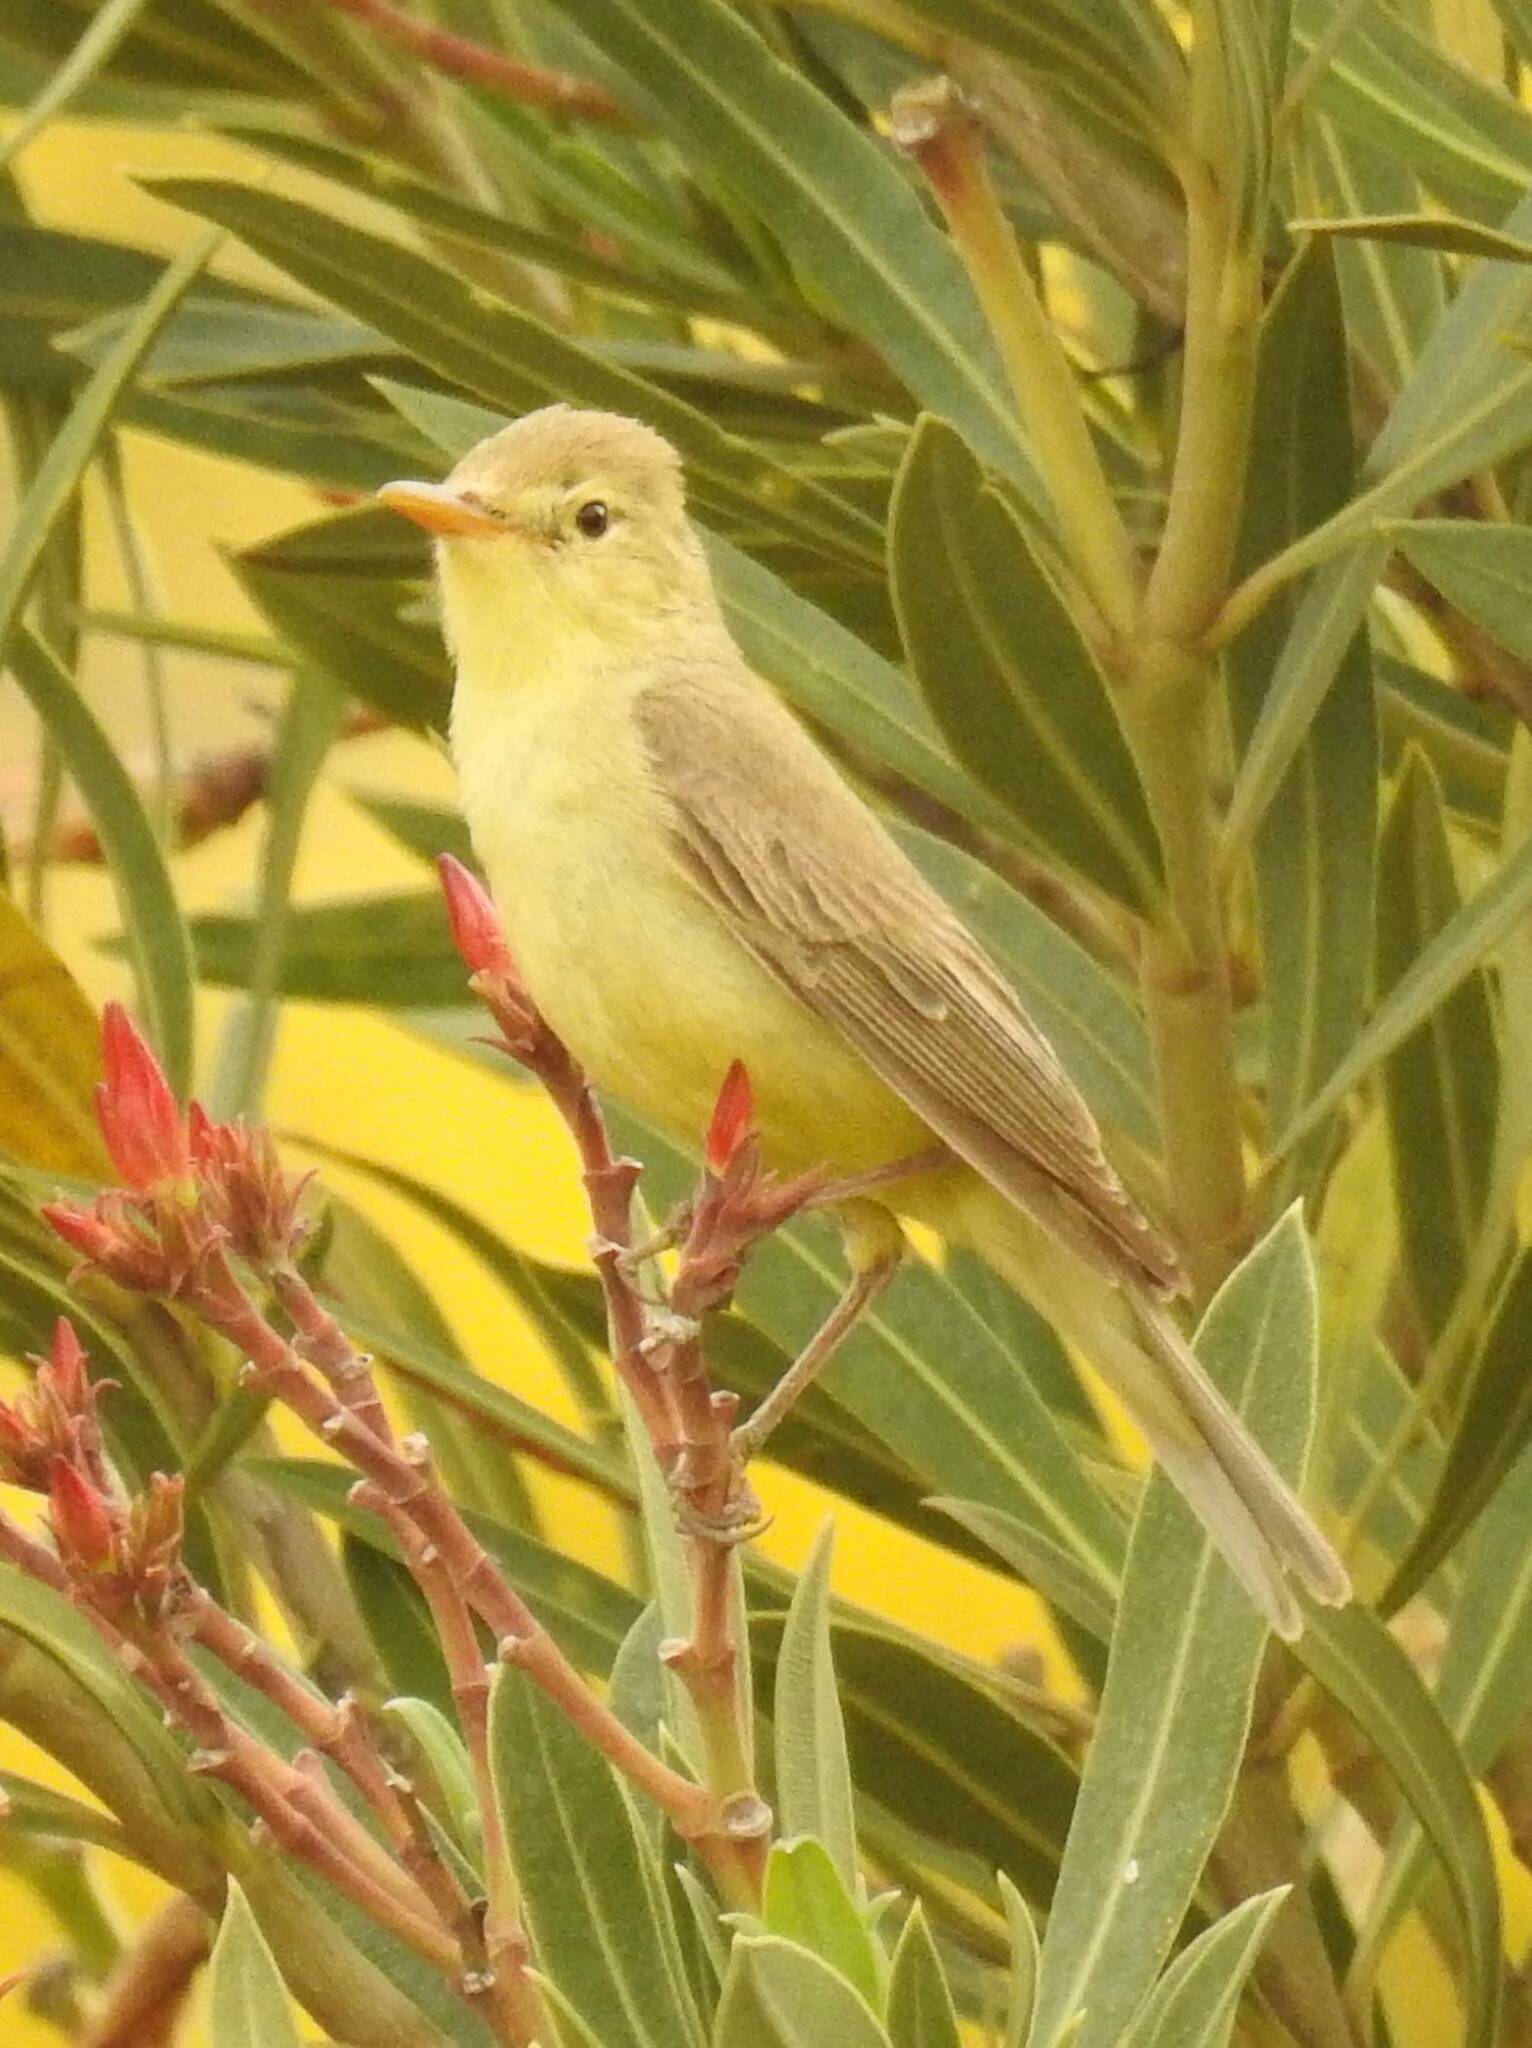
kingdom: Animalia
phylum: Chordata
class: Aves
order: Passeriformes
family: Acrocephalidae
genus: Hippolais
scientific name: Hippolais polyglotta
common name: Melodious warbler
